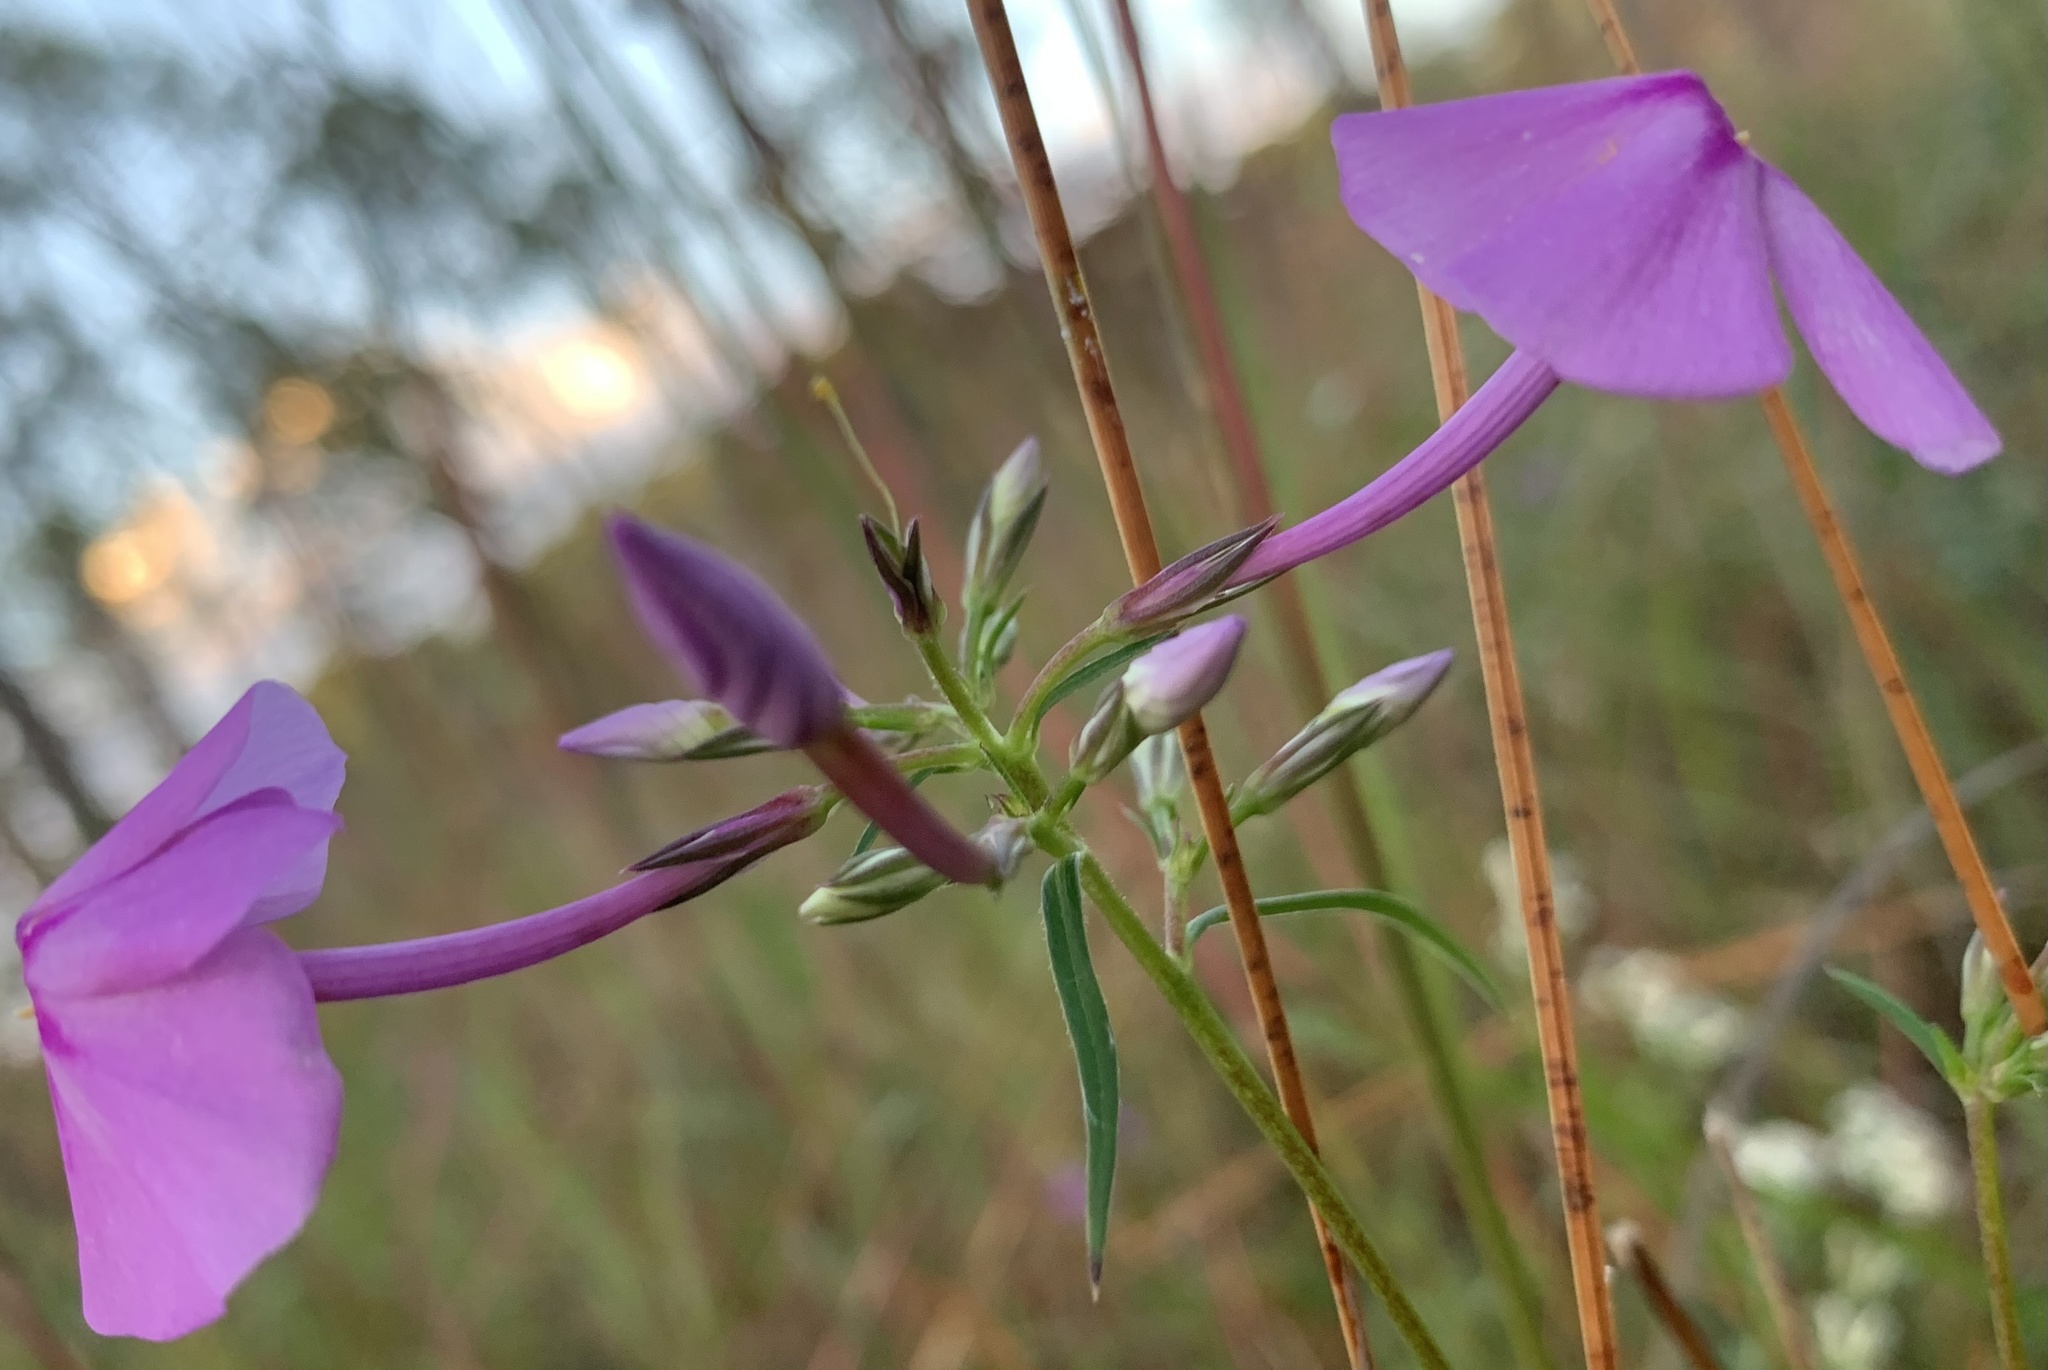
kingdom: Plantae
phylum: Tracheophyta
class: Magnoliopsida
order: Ericales
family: Polemoniaceae
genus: Phlox
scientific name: Phlox carolina
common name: Thick-leaf phlox
